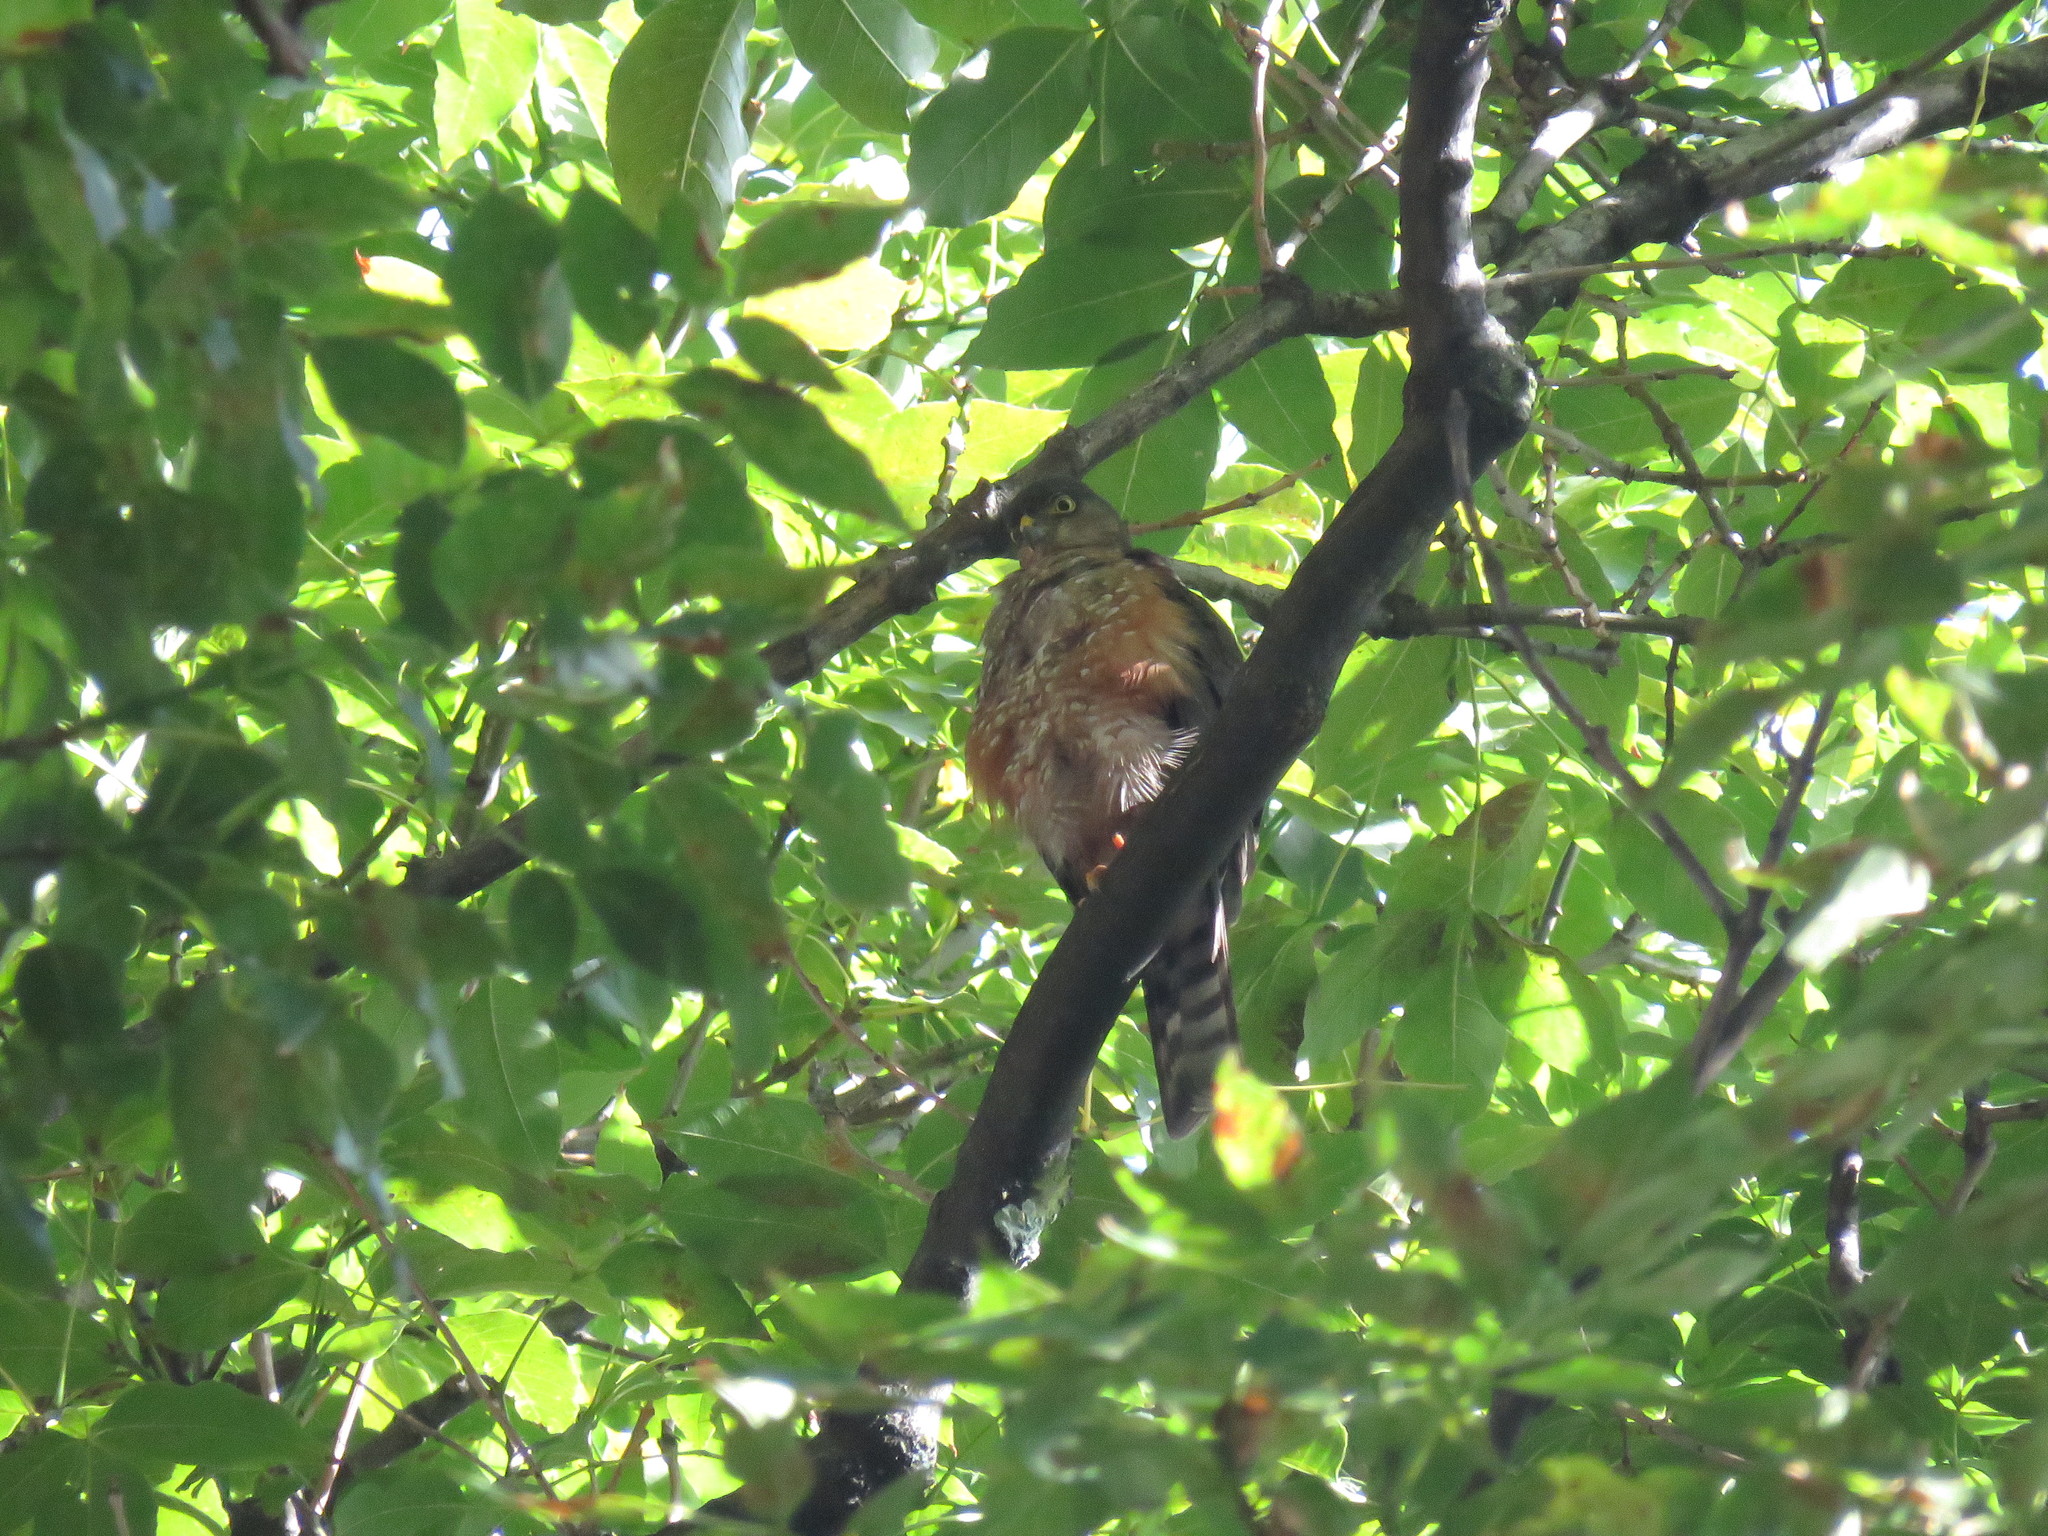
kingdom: Animalia
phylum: Chordata
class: Aves
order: Accipitriformes
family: Accipitridae
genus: Accipiter
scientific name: Accipiter striatus
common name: Sharp-shinned hawk
